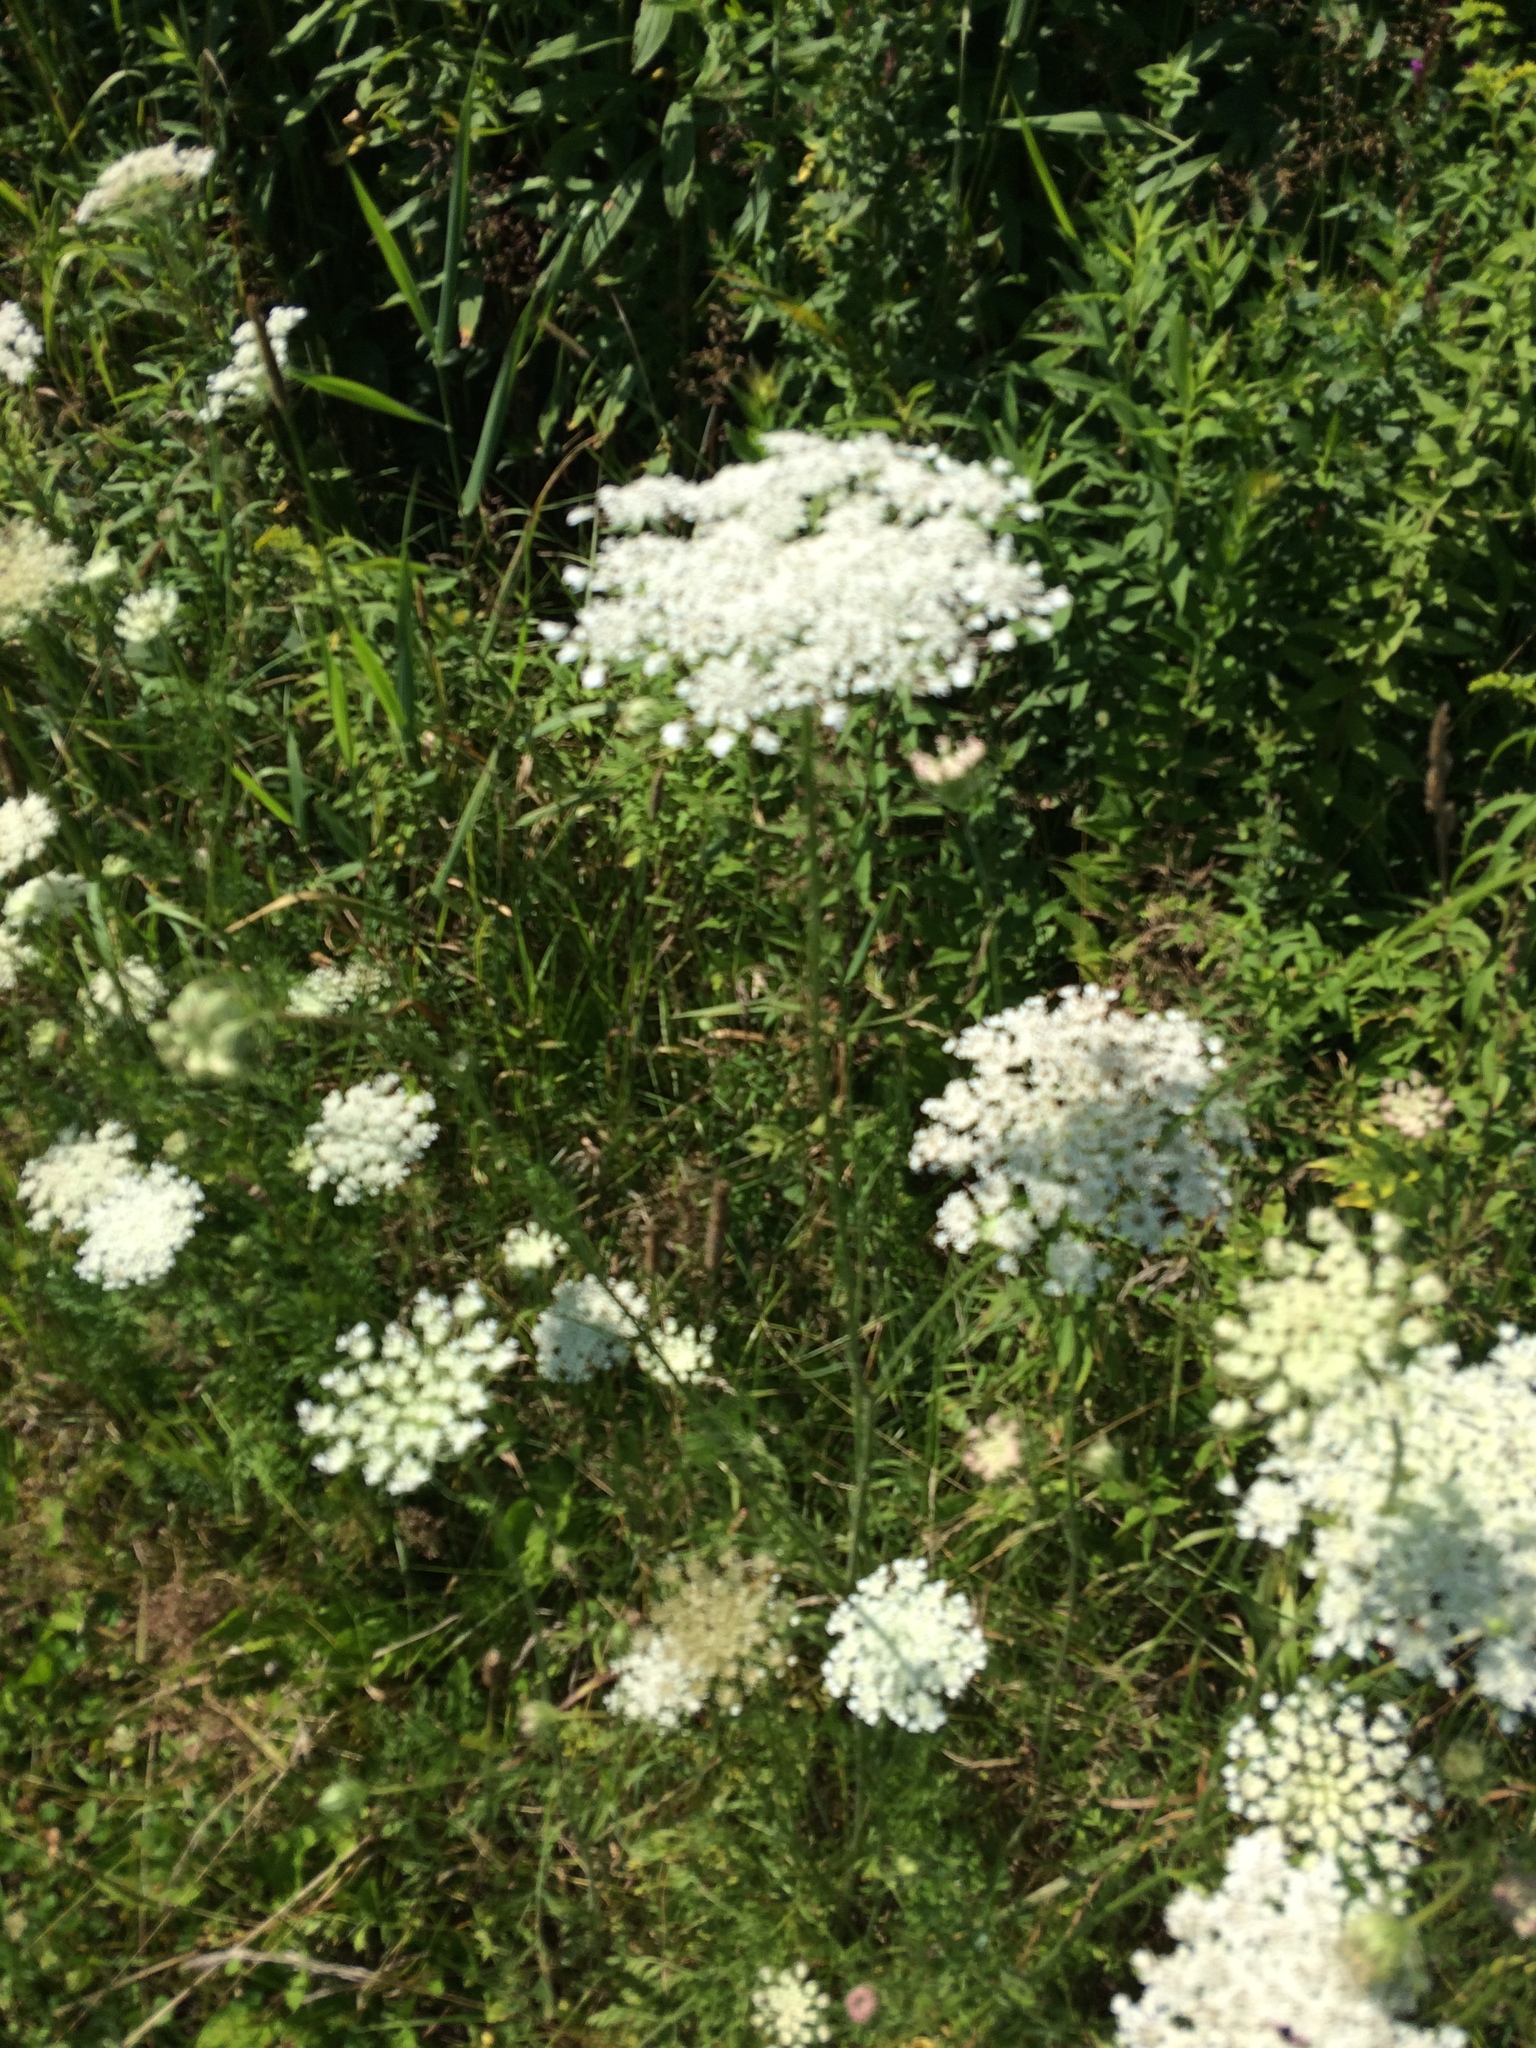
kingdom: Plantae
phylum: Tracheophyta
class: Magnoliopsida
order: Apiales
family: Apiaceae
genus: Daucus
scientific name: Daucus carota
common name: Wild carrot
